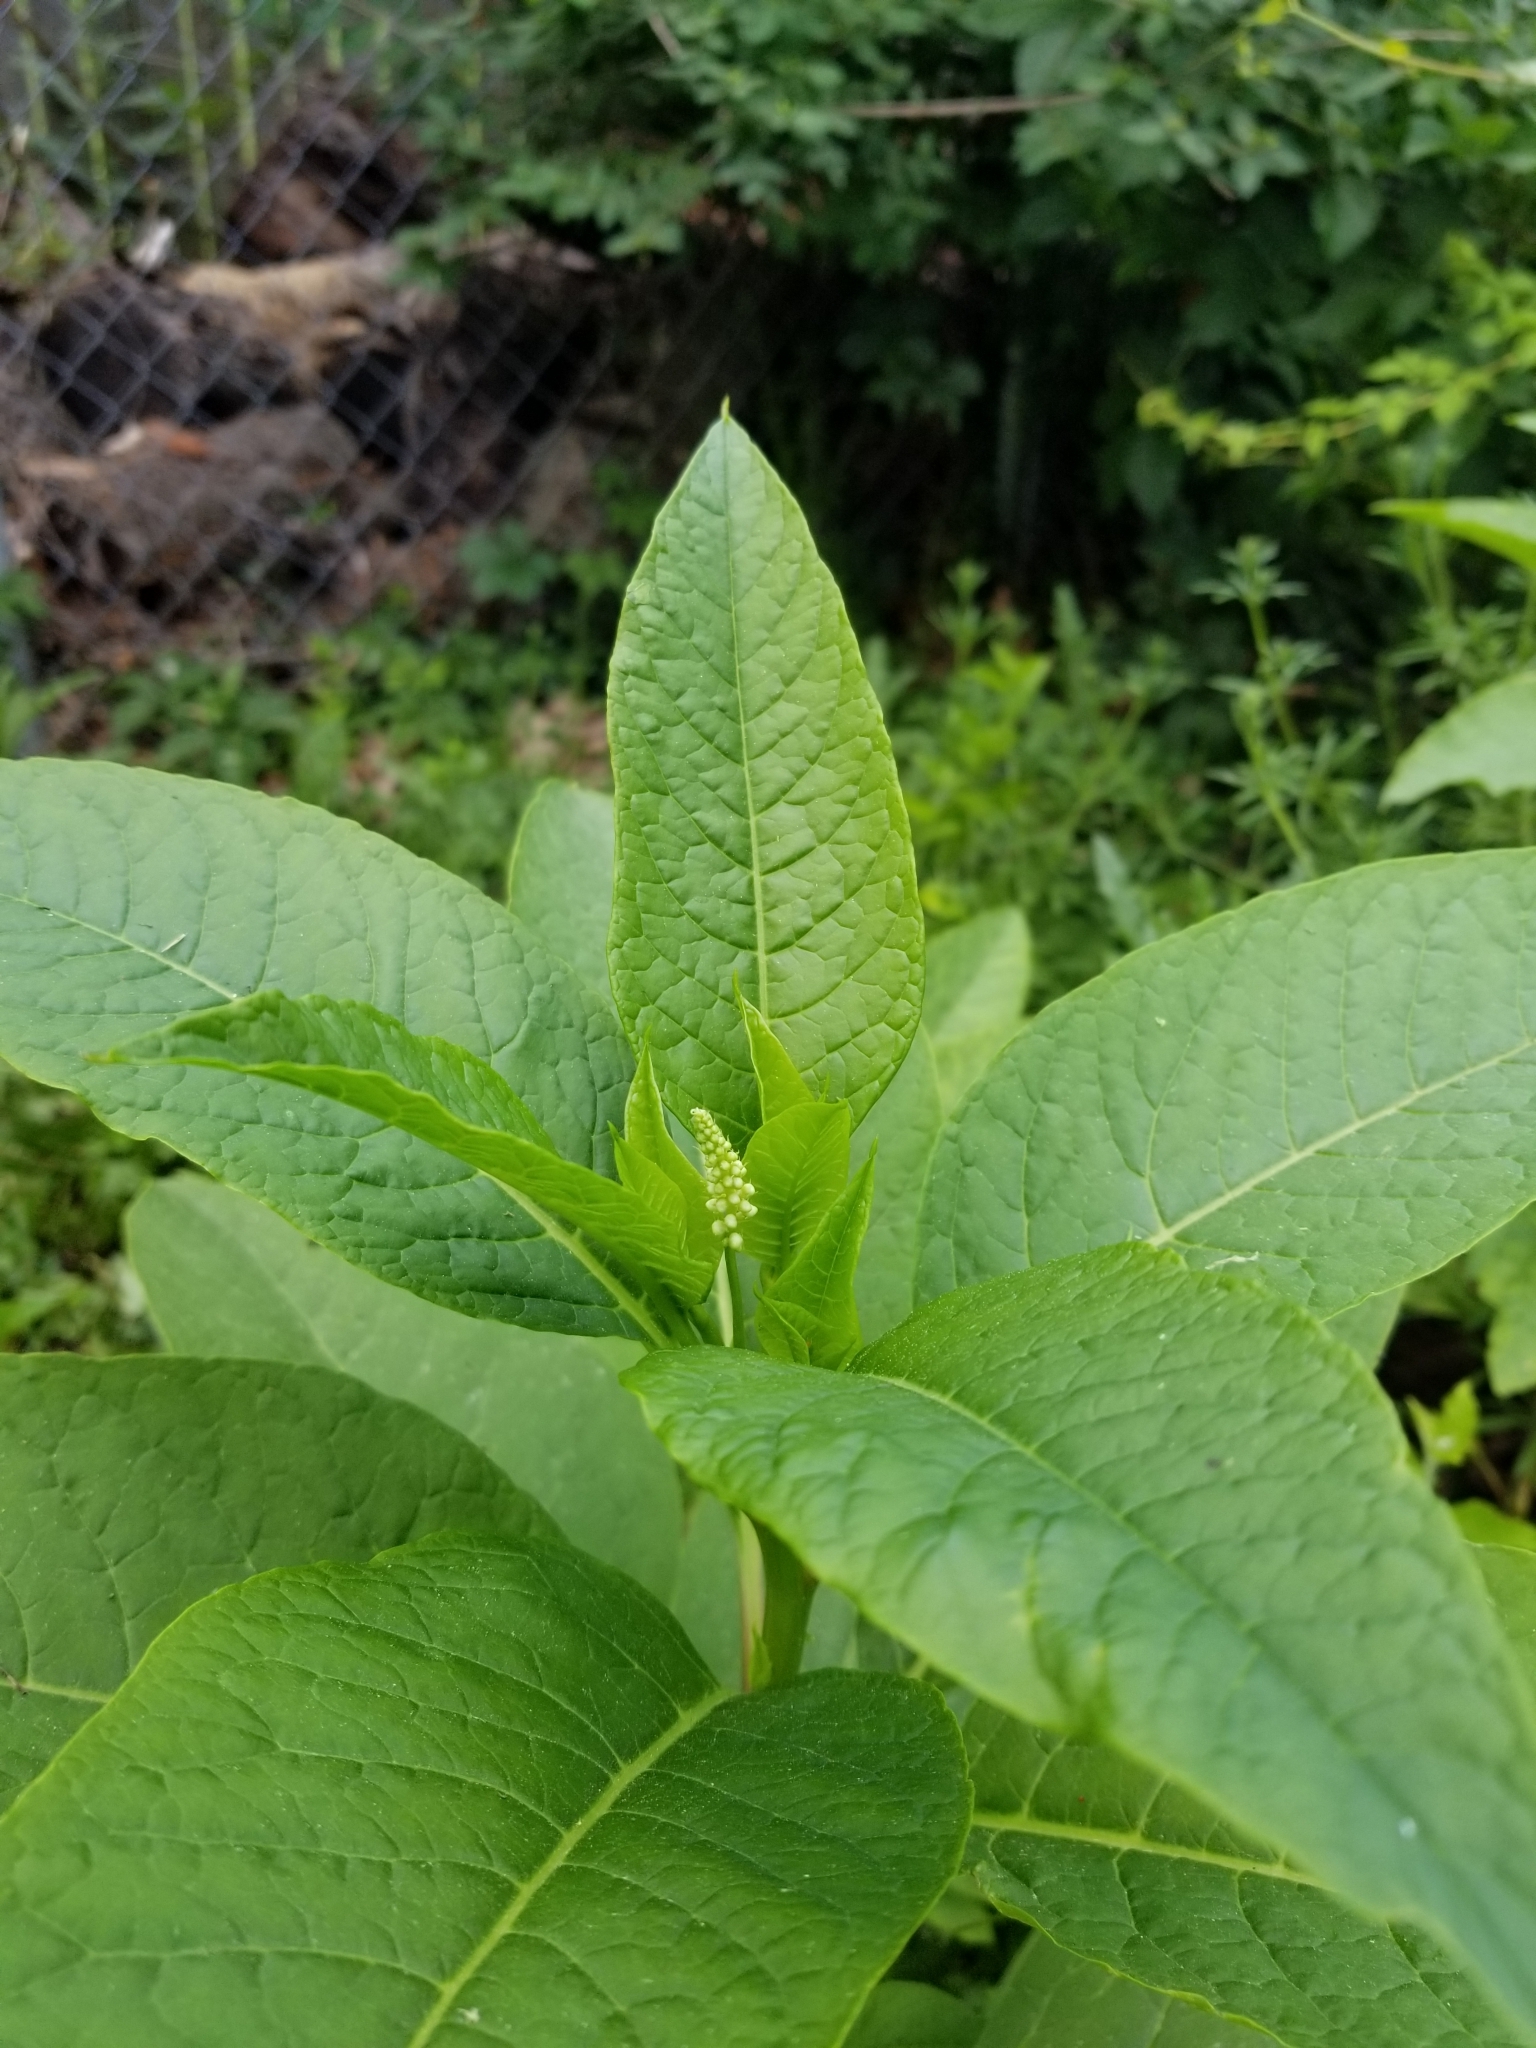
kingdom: Plantae
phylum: Tracheophyta
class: Magnoliopsida
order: Caryophyllales
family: Phytolaccaceae
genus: Phytolacca
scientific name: Phytolacca americana
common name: American pokeweed
